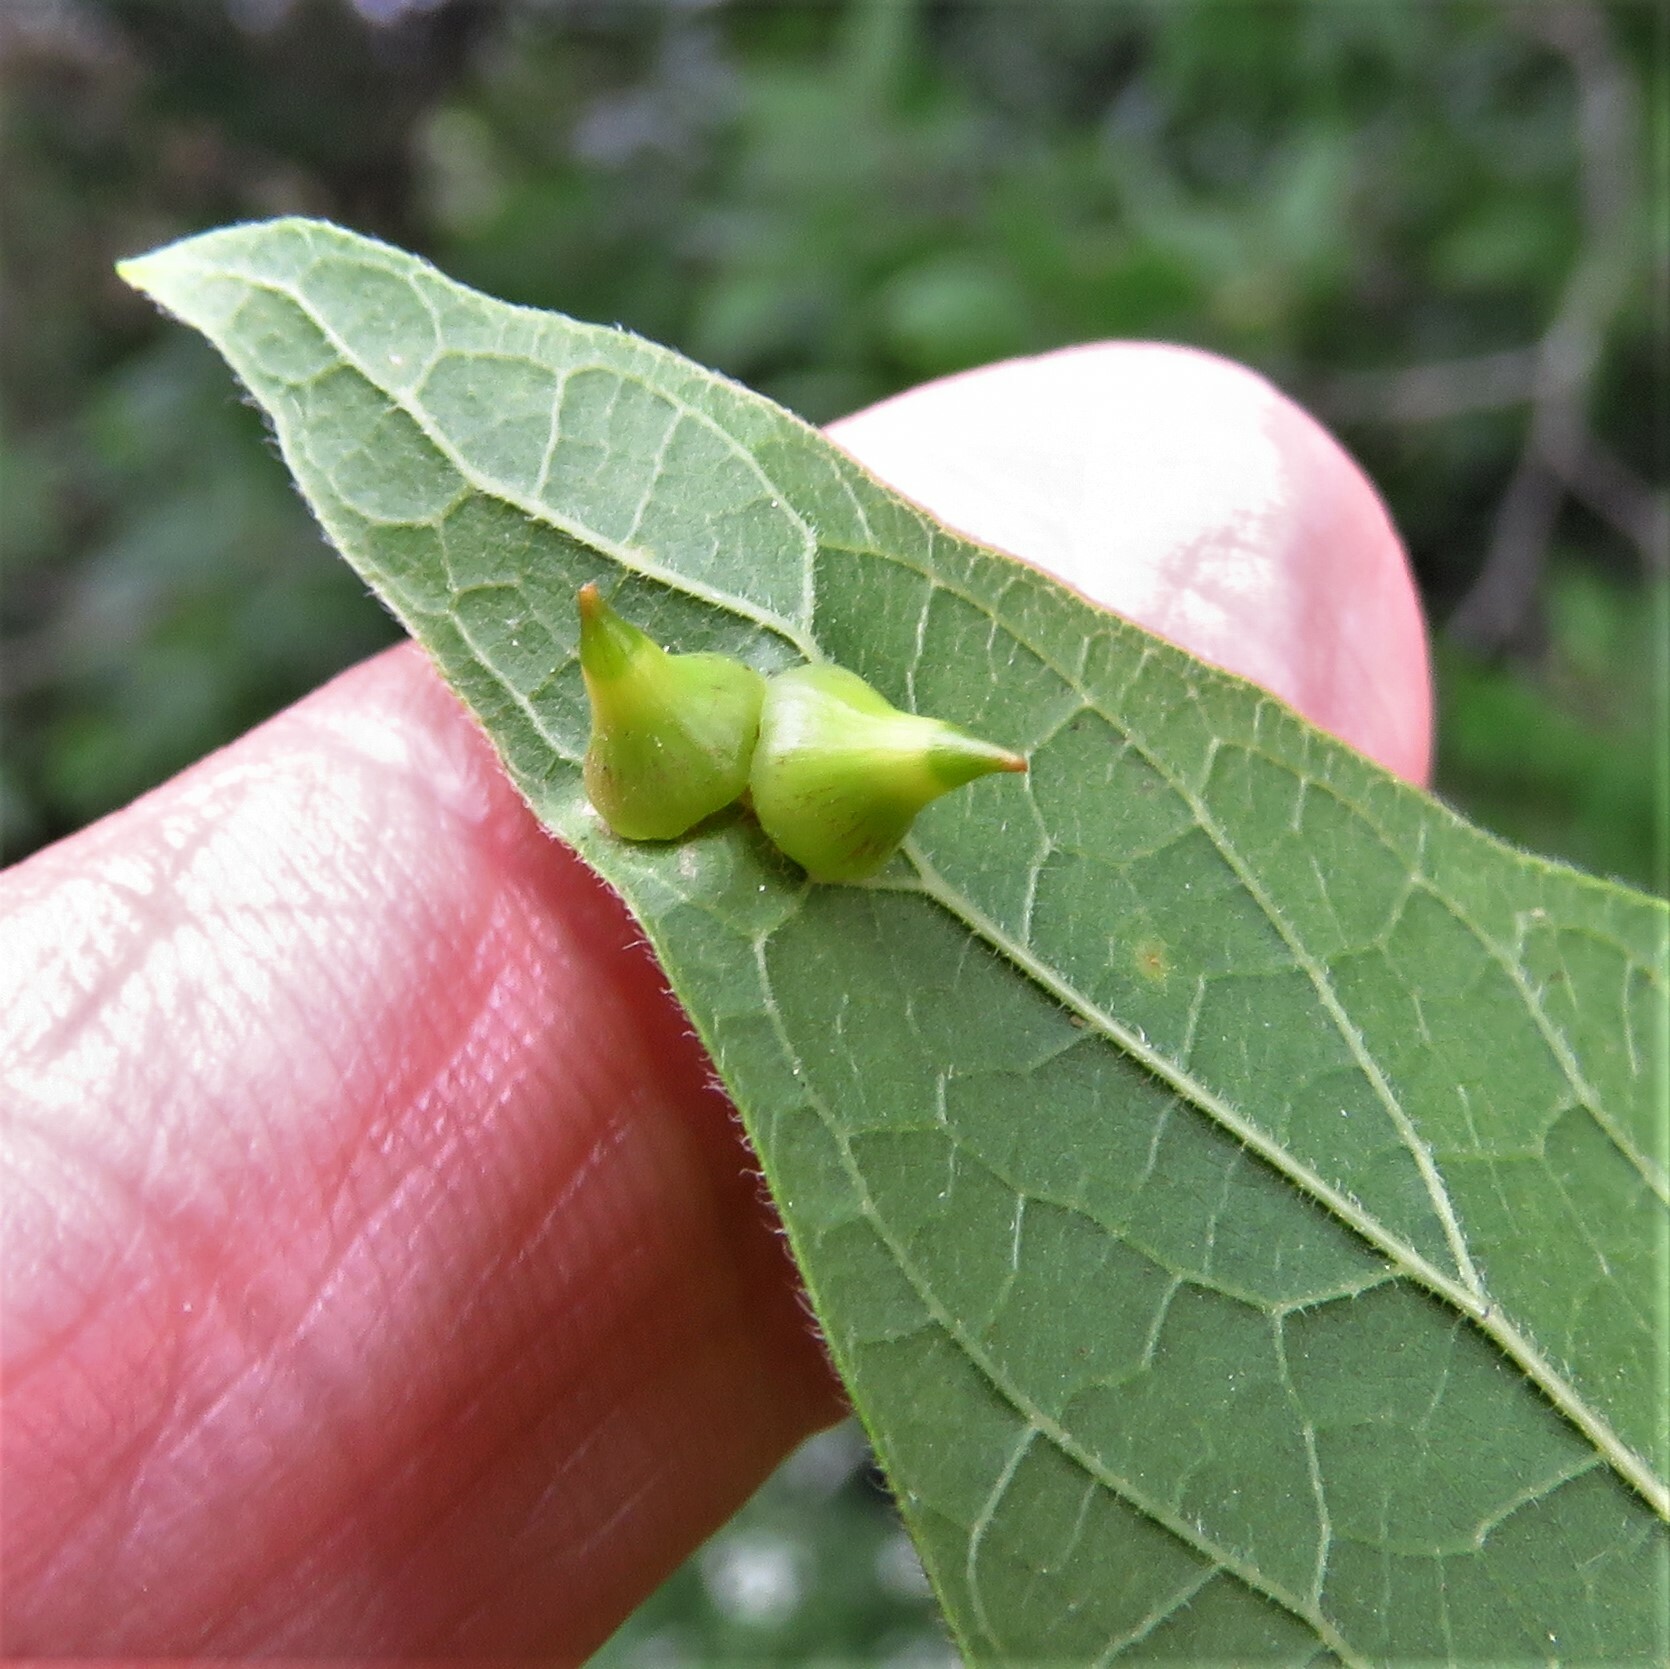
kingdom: Animalia
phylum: Arthropoda
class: Insecta
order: Diptera
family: Cecidomyiidae
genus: Celticecis
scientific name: Celticecis spiniformis
